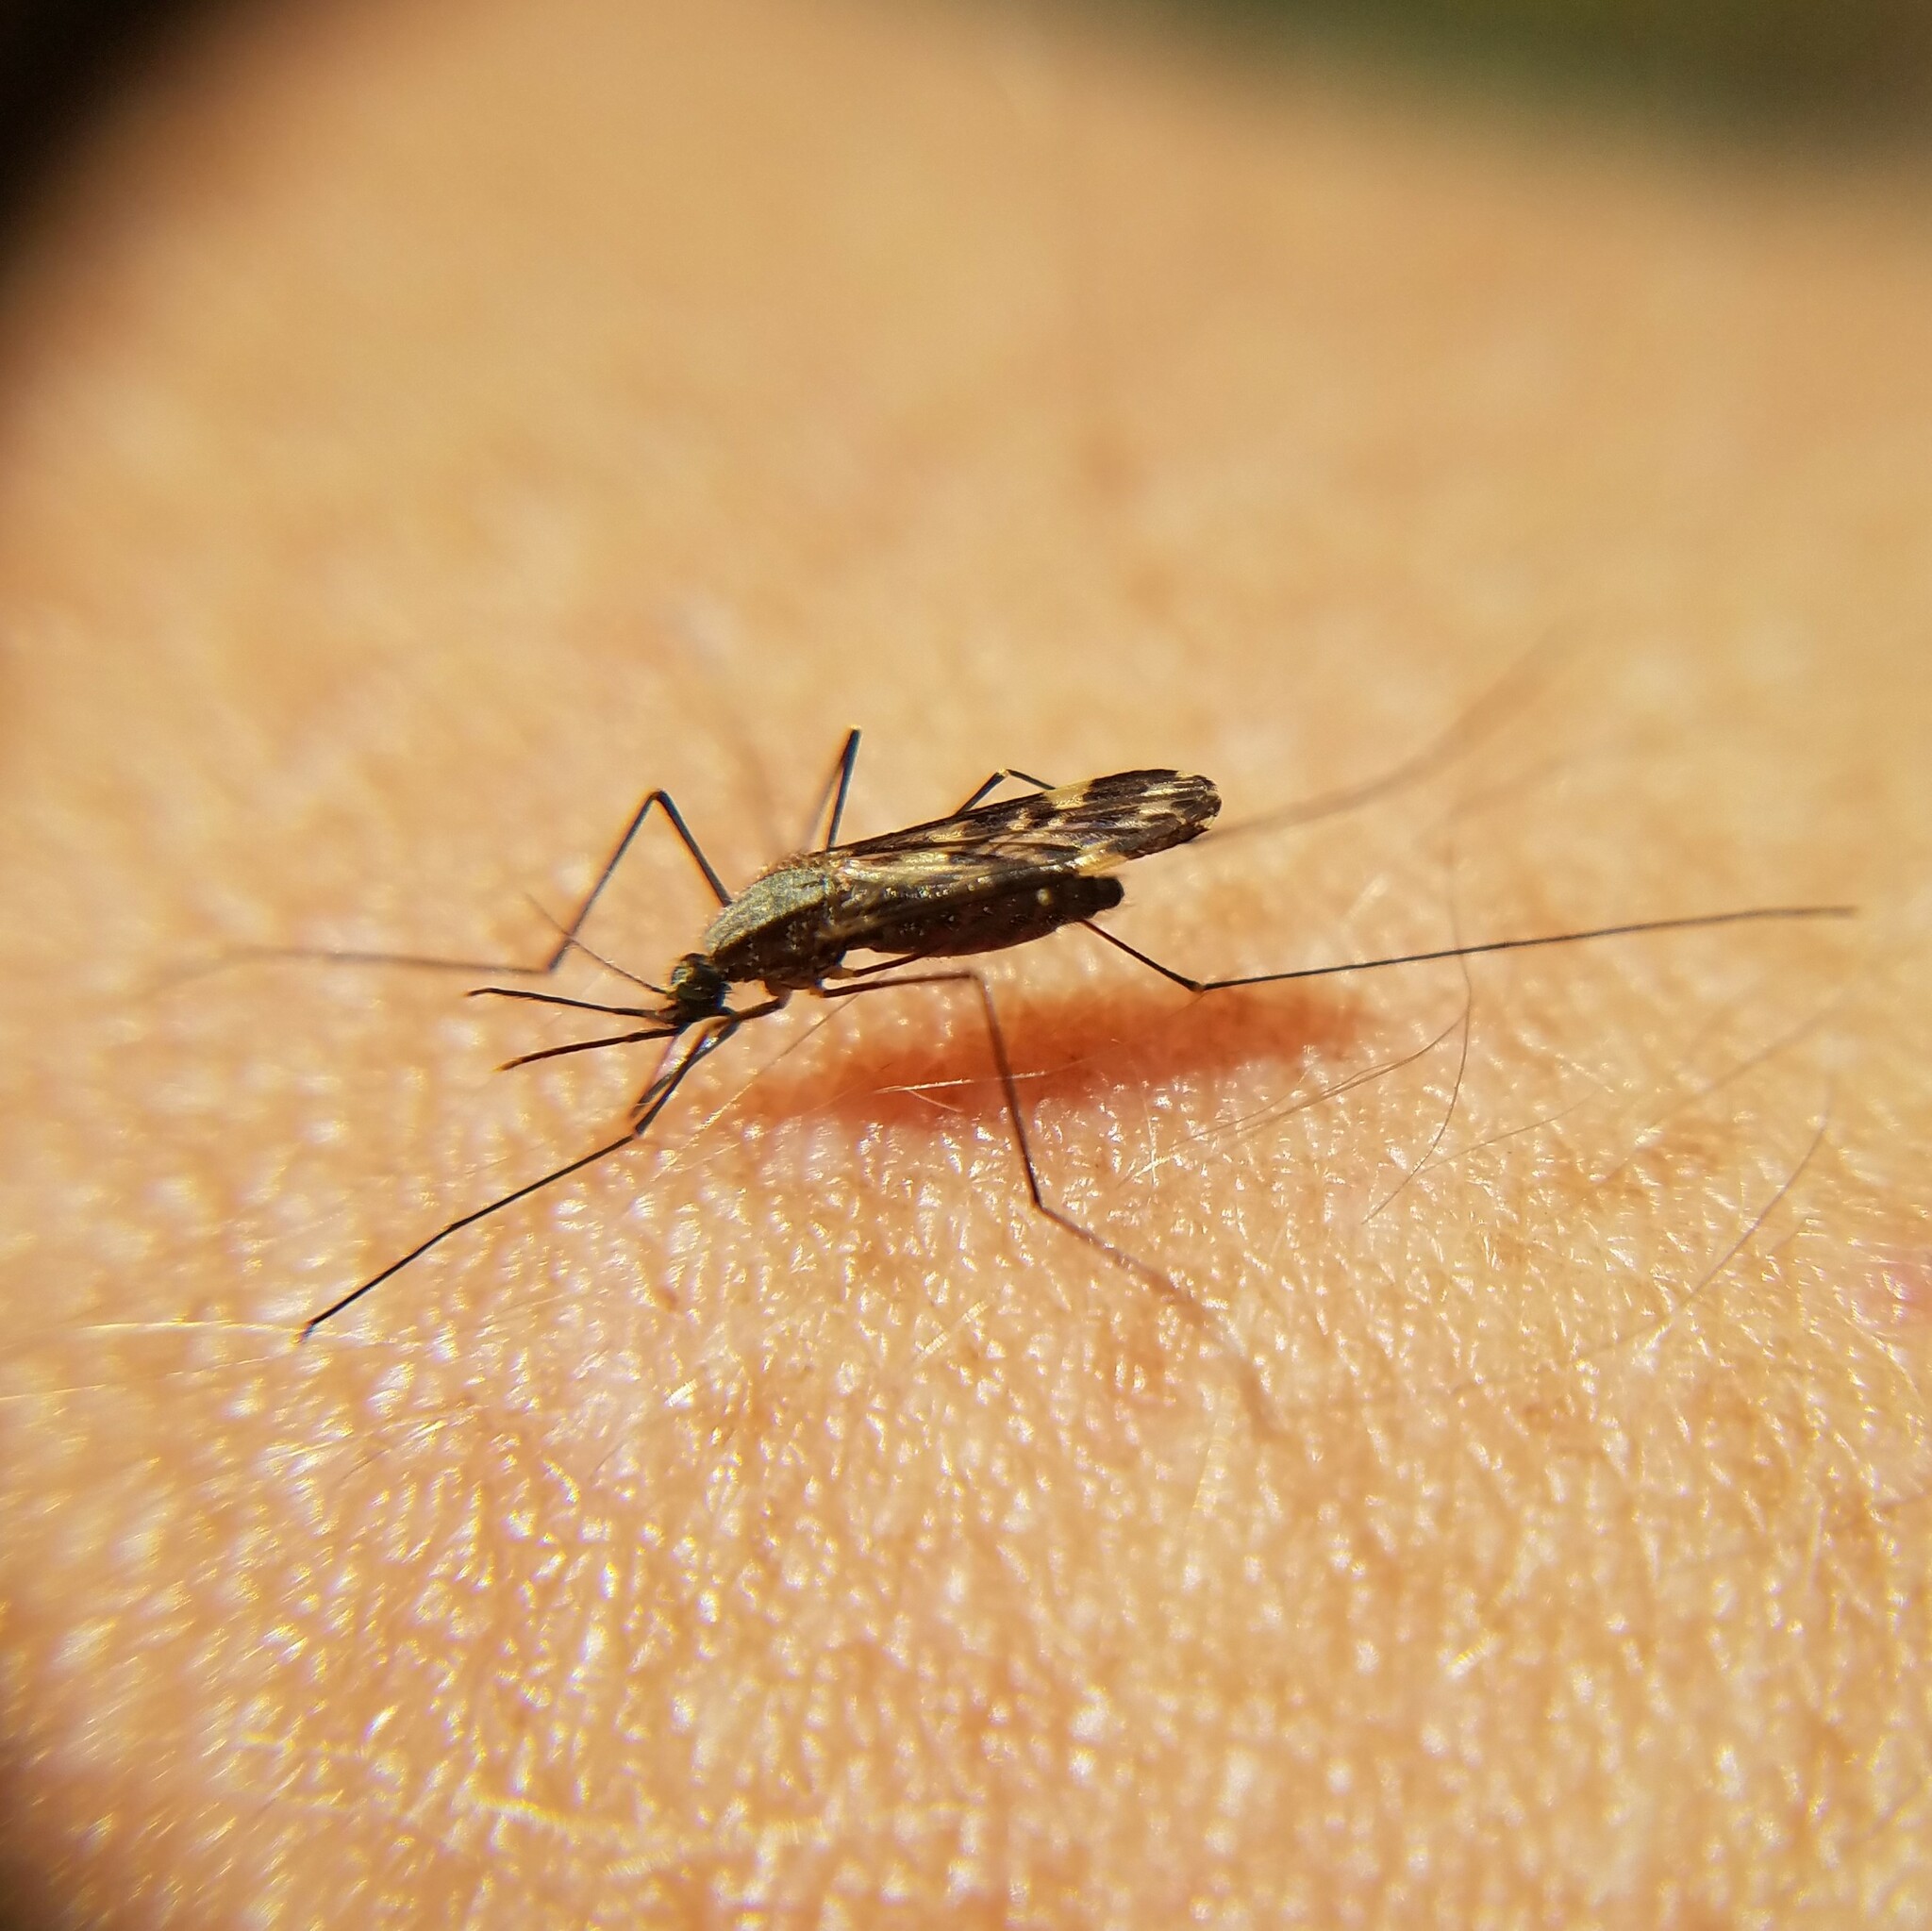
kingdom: Animalia
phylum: Arthropoda
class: Insecta
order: Diptera
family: Culicidae
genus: Anopheles
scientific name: Anopheles punctipennis
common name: Woodland malaria mosquito
